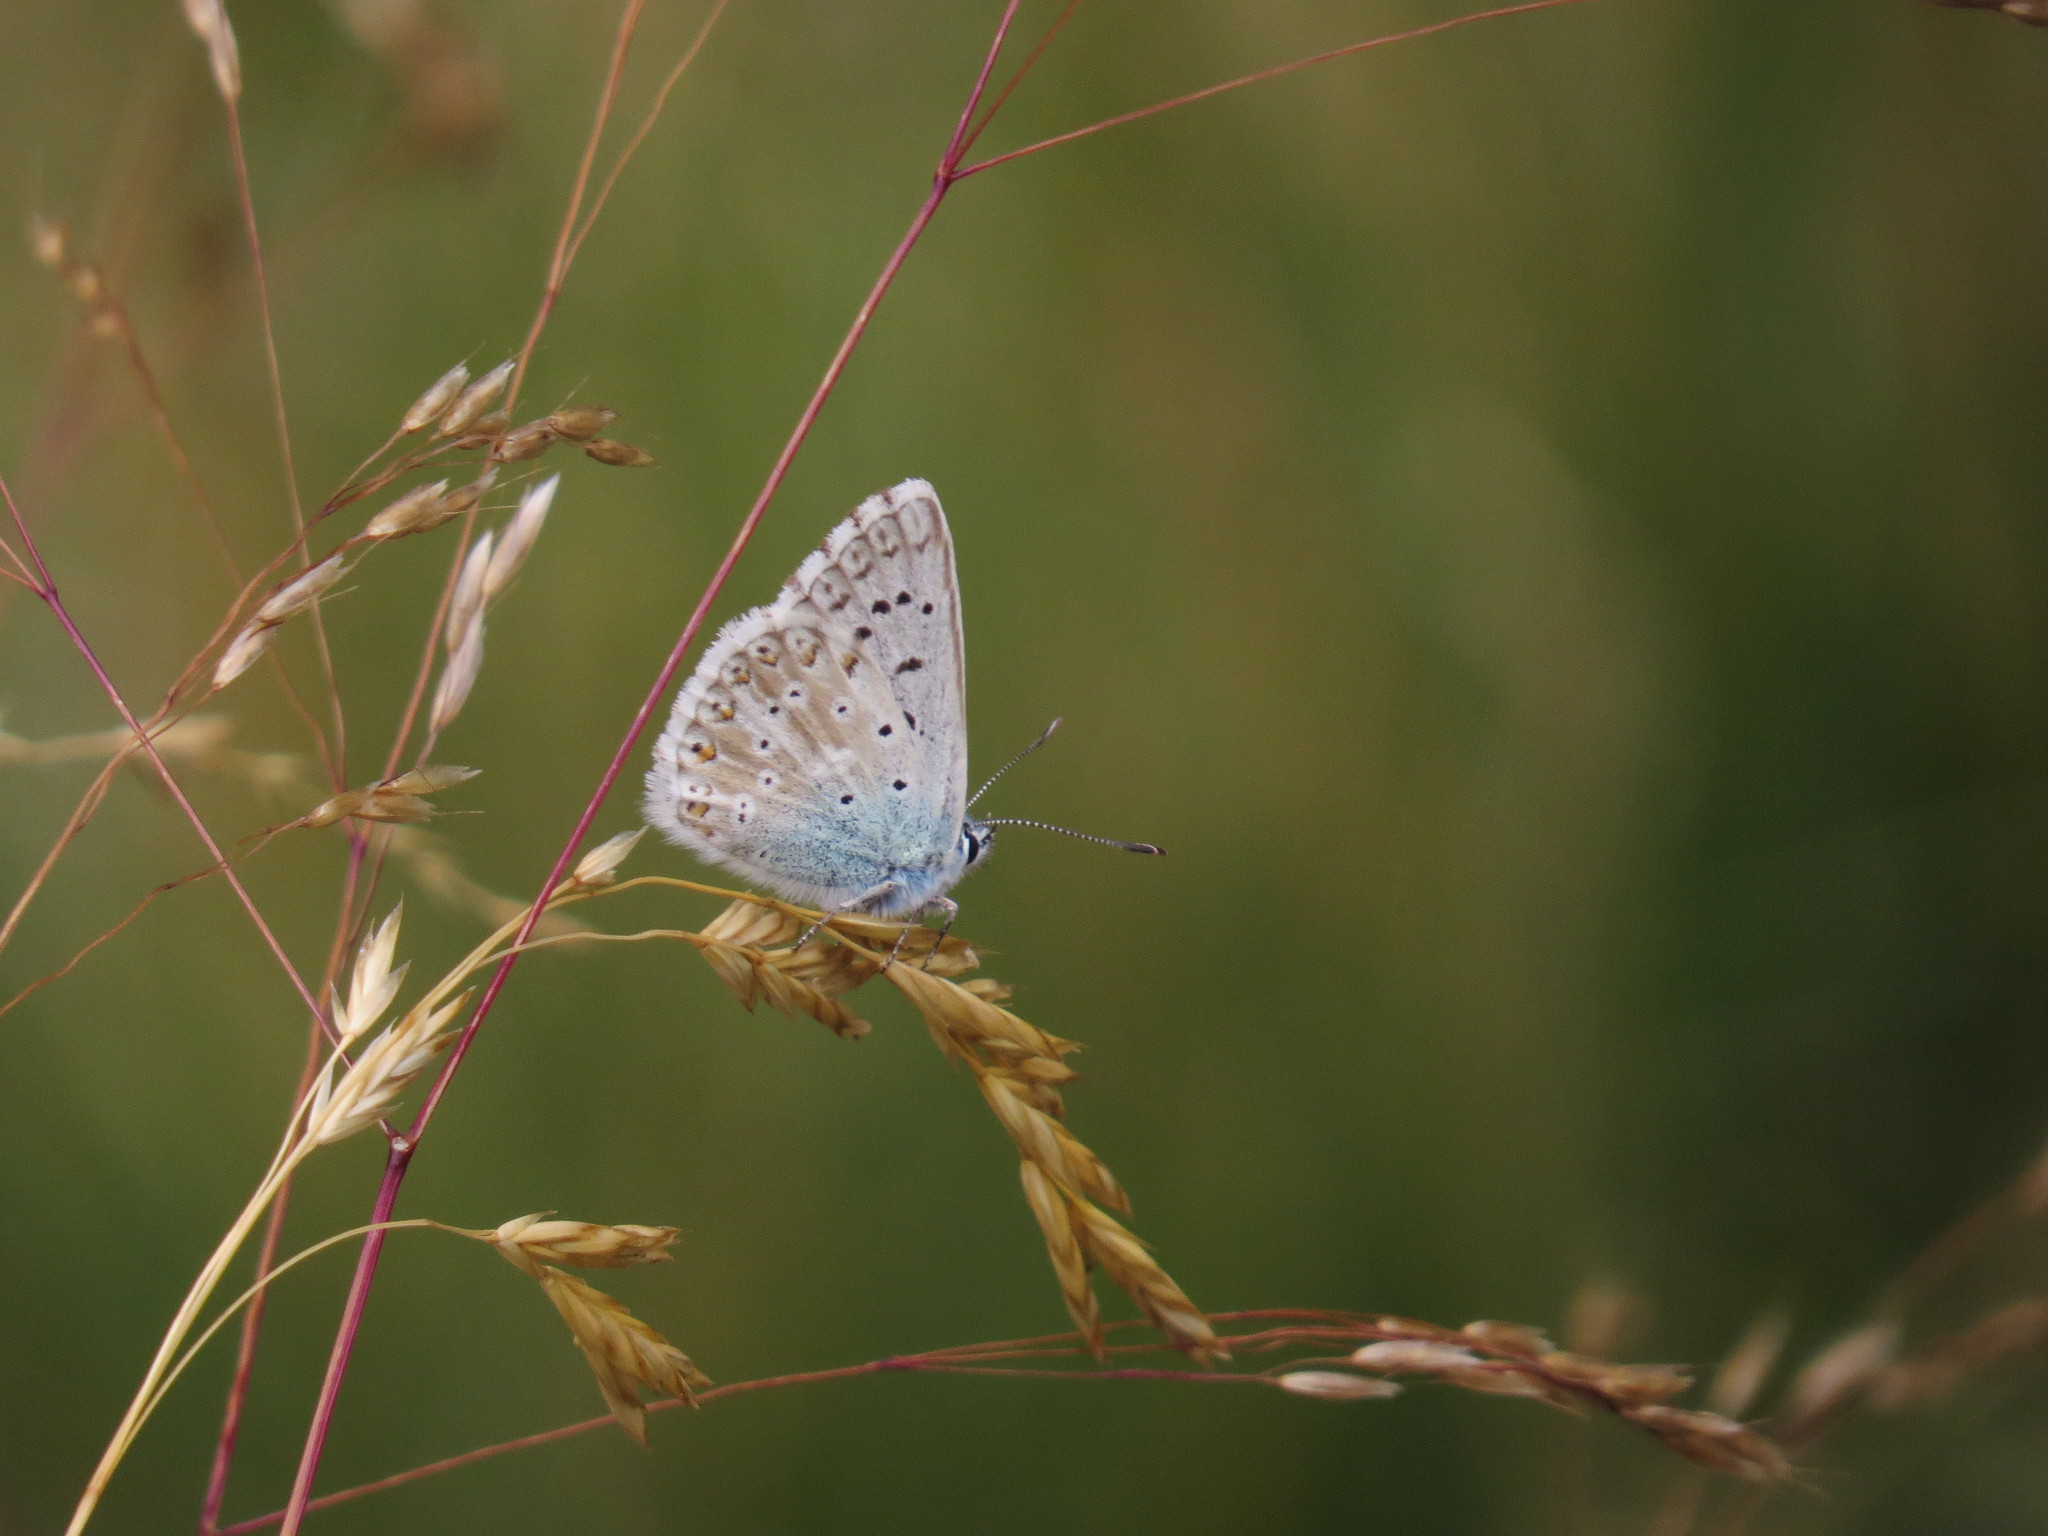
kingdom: Animalia
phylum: Arthropoda
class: Insecta
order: Lepidoptera
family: Lycaenidae
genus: Lysandra
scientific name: Lysandra coridon
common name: Chalkhill blue
